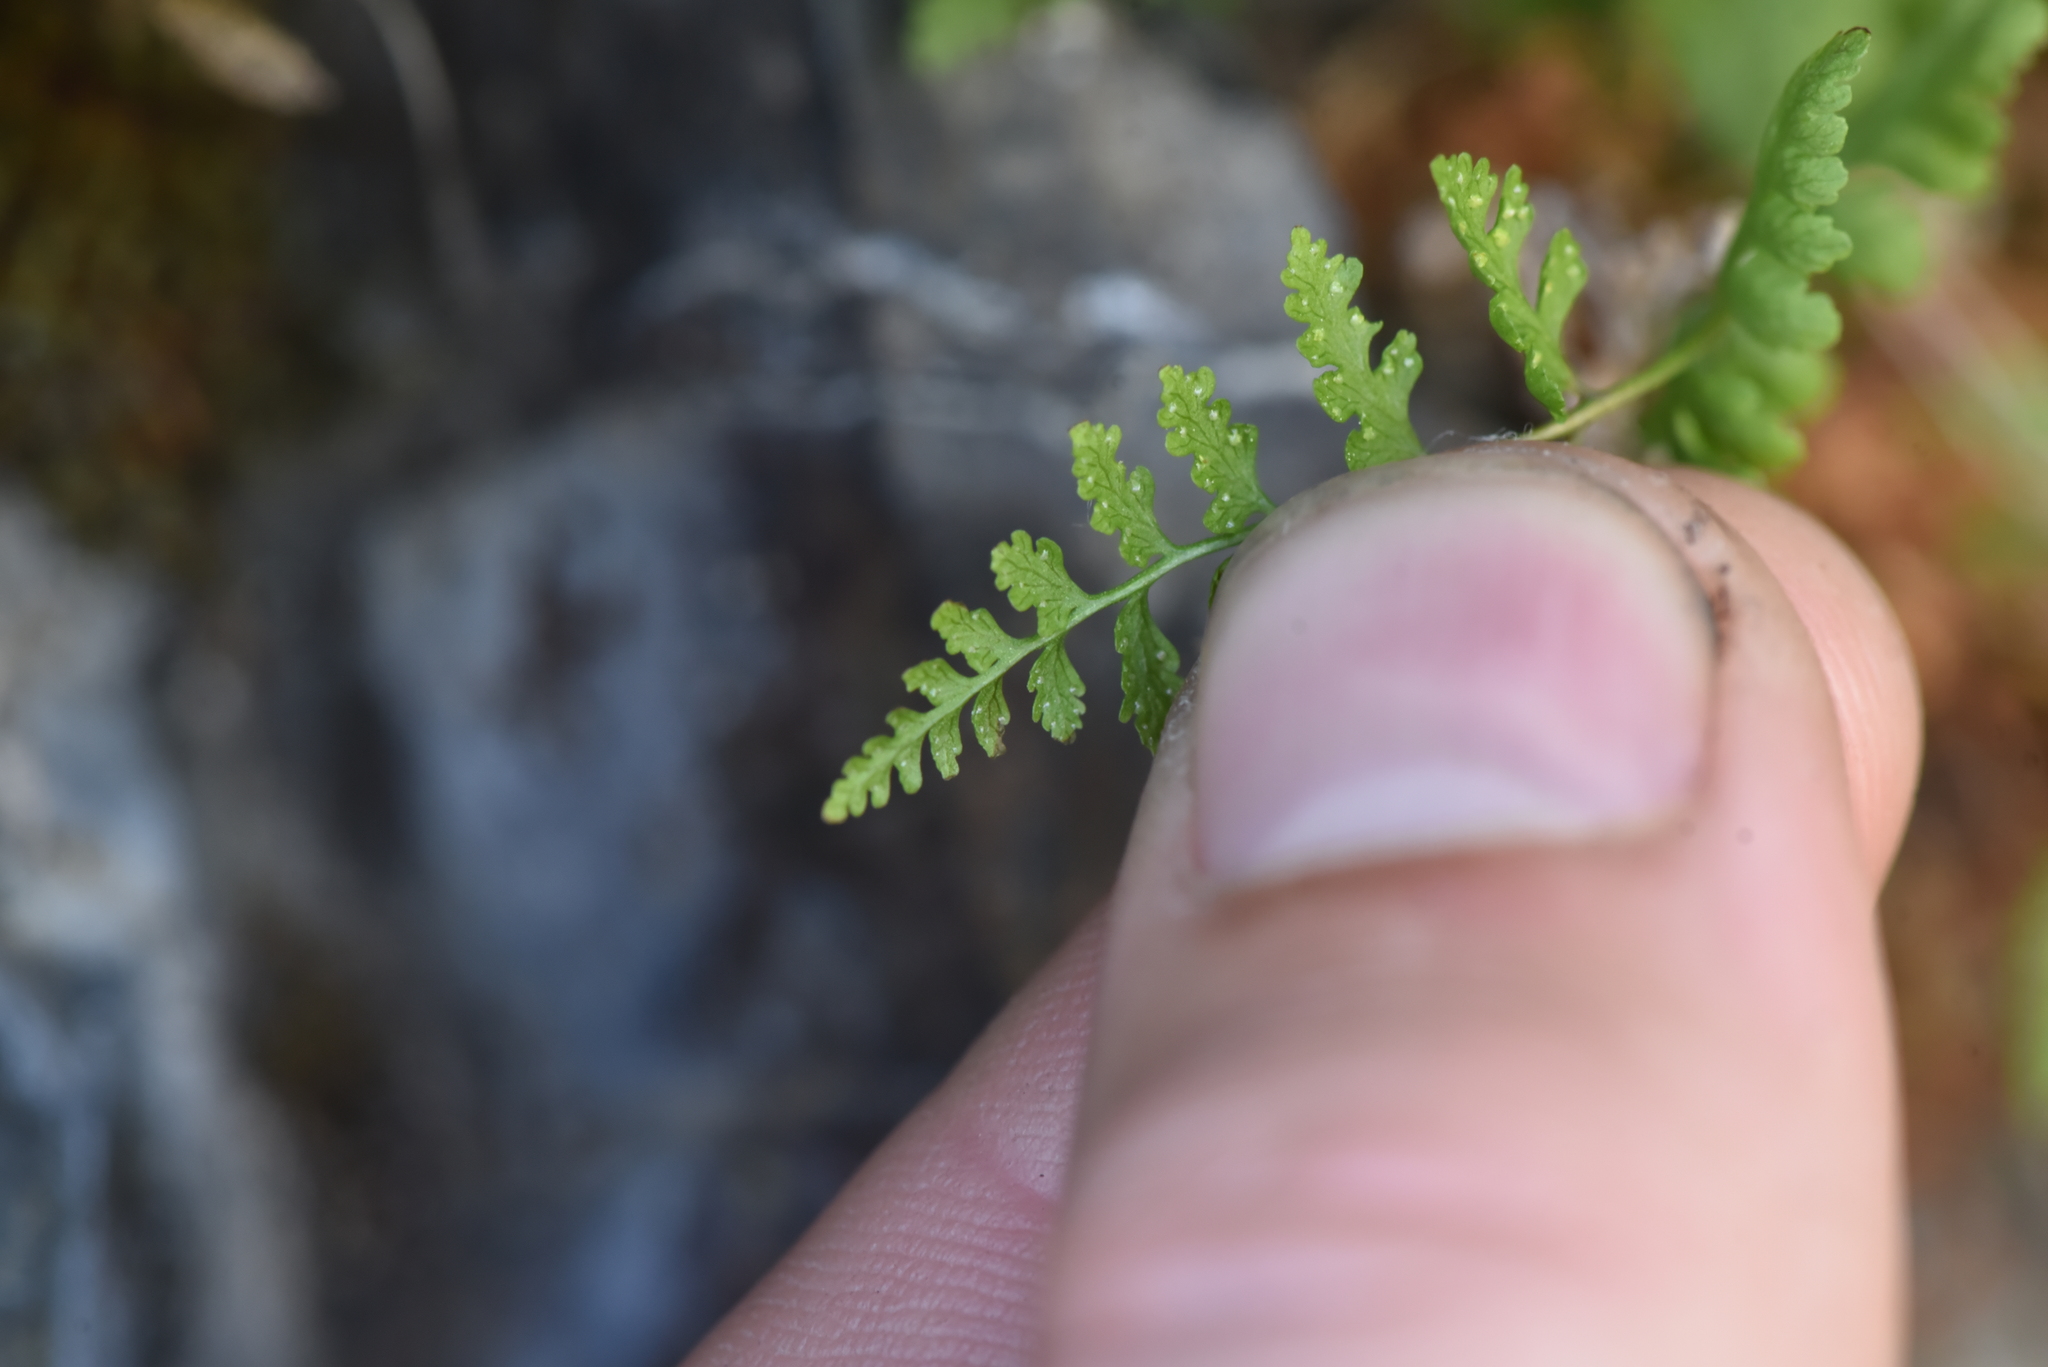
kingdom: Plantae
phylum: Tracheophyta
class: Polypodiopsida
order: Polypodiales
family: Cystopteridaceae
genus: Cystopteris
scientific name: Cystopteris fragilis
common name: Brittle bladder fern
